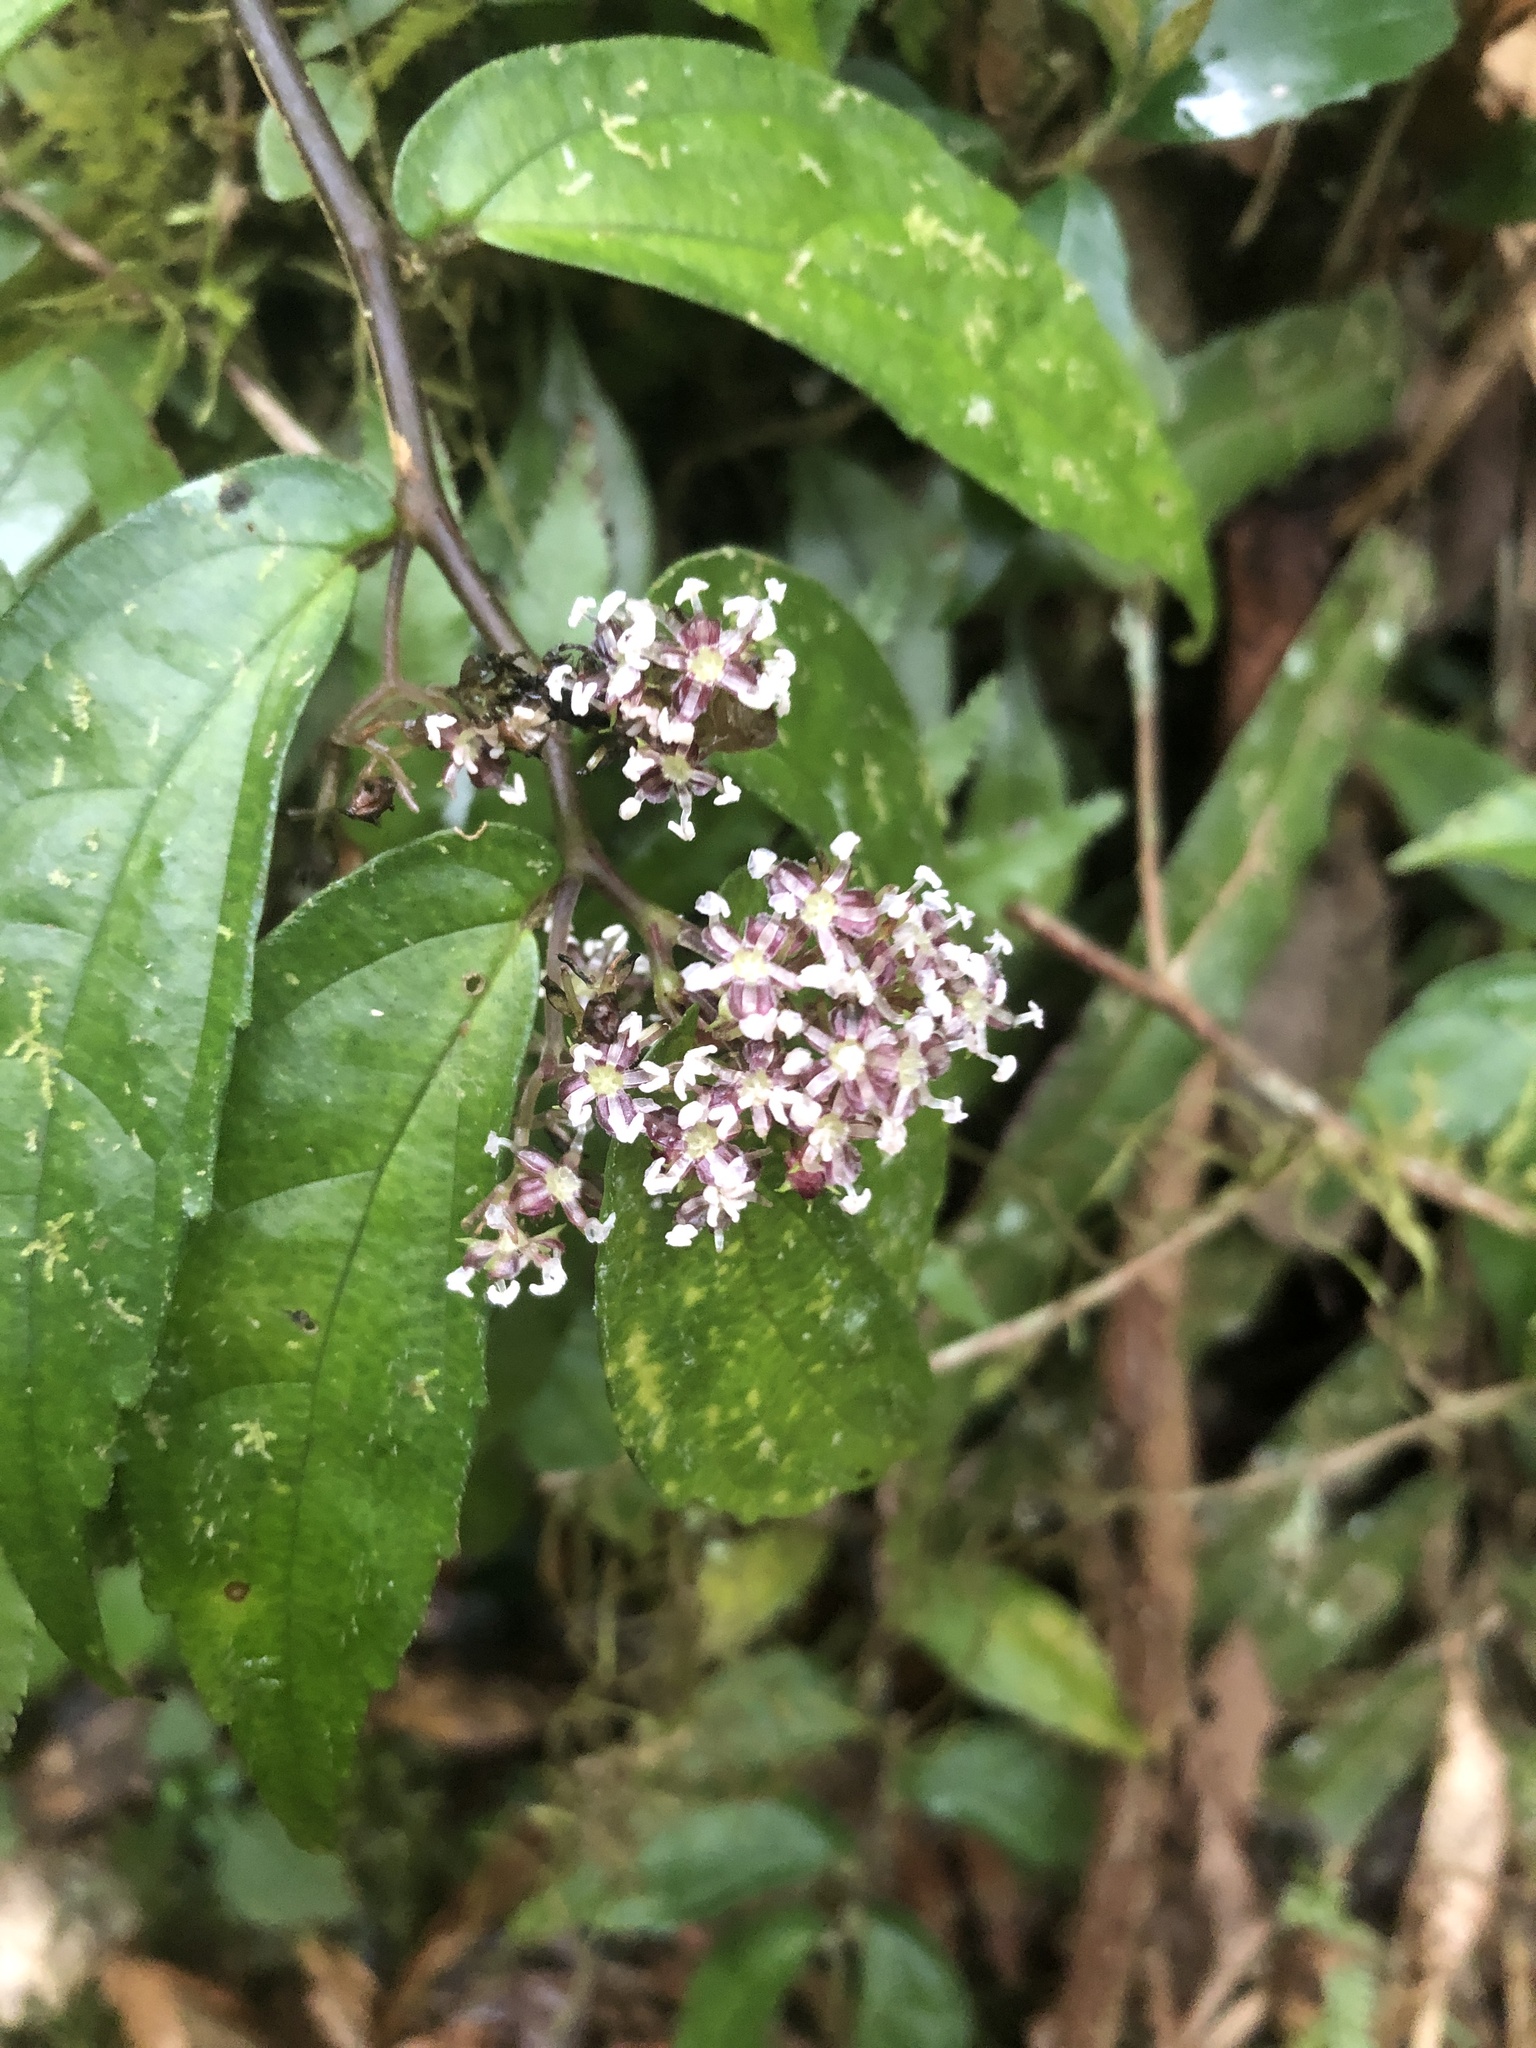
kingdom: Plantae
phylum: Tracheophyta
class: Magnoliopsida
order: Rosales
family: Urticaceae
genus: Elatostema
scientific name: Elatostema radicans
